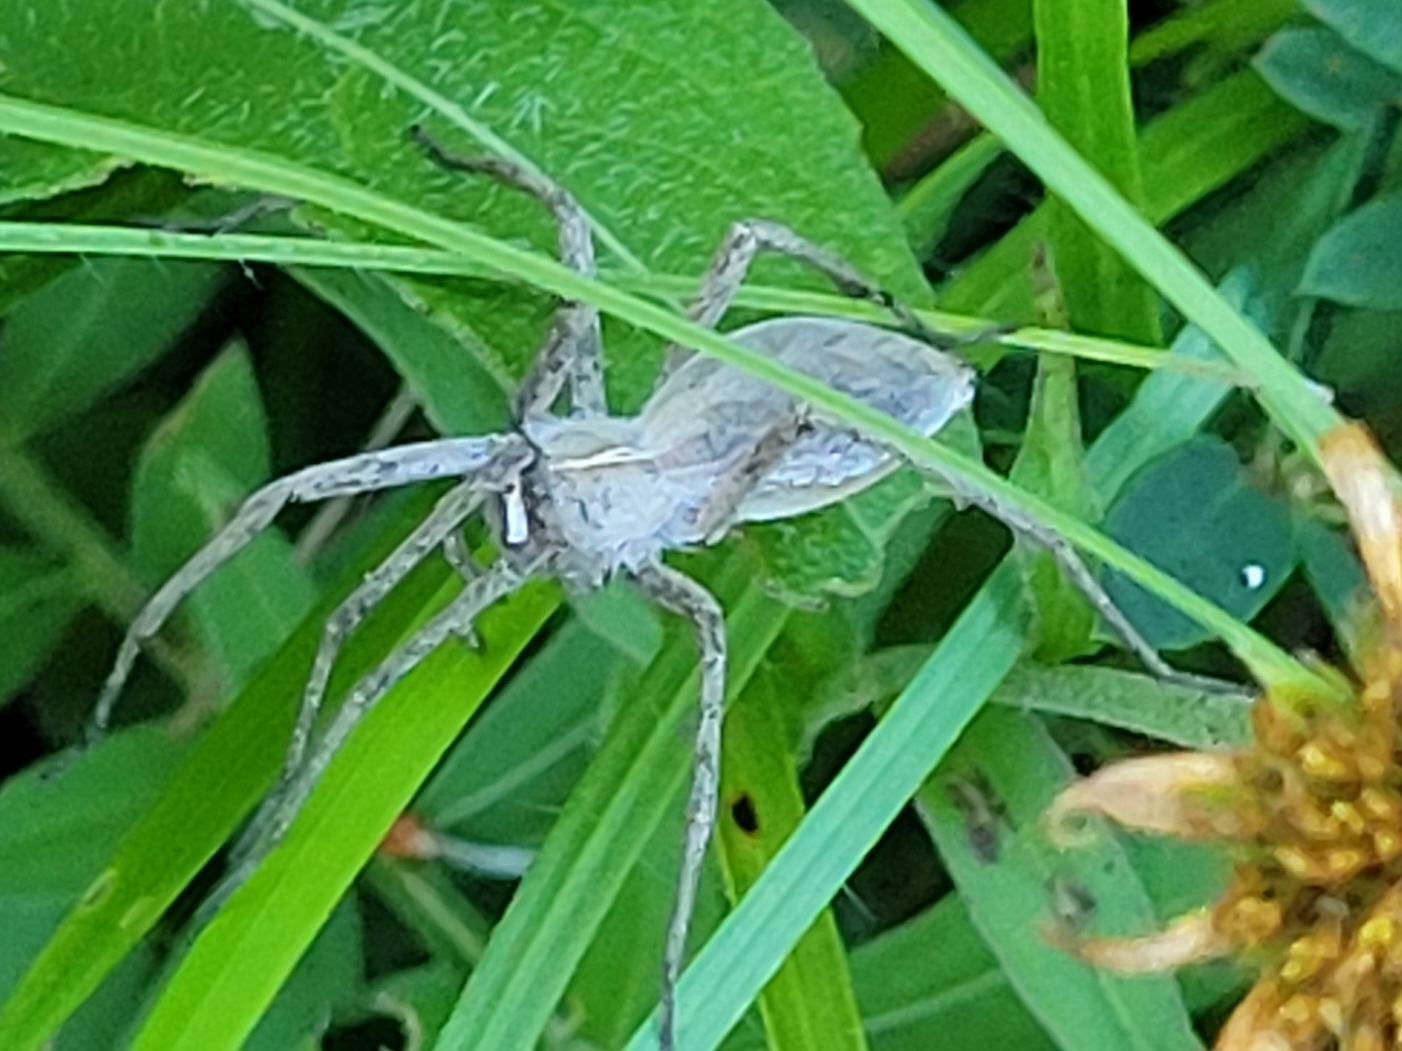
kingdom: Animalia
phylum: Arthropoda
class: Arachnida
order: Araneae
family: Pisauridae
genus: Pisaura
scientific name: Pisaura mirabilis
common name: Tent spider
